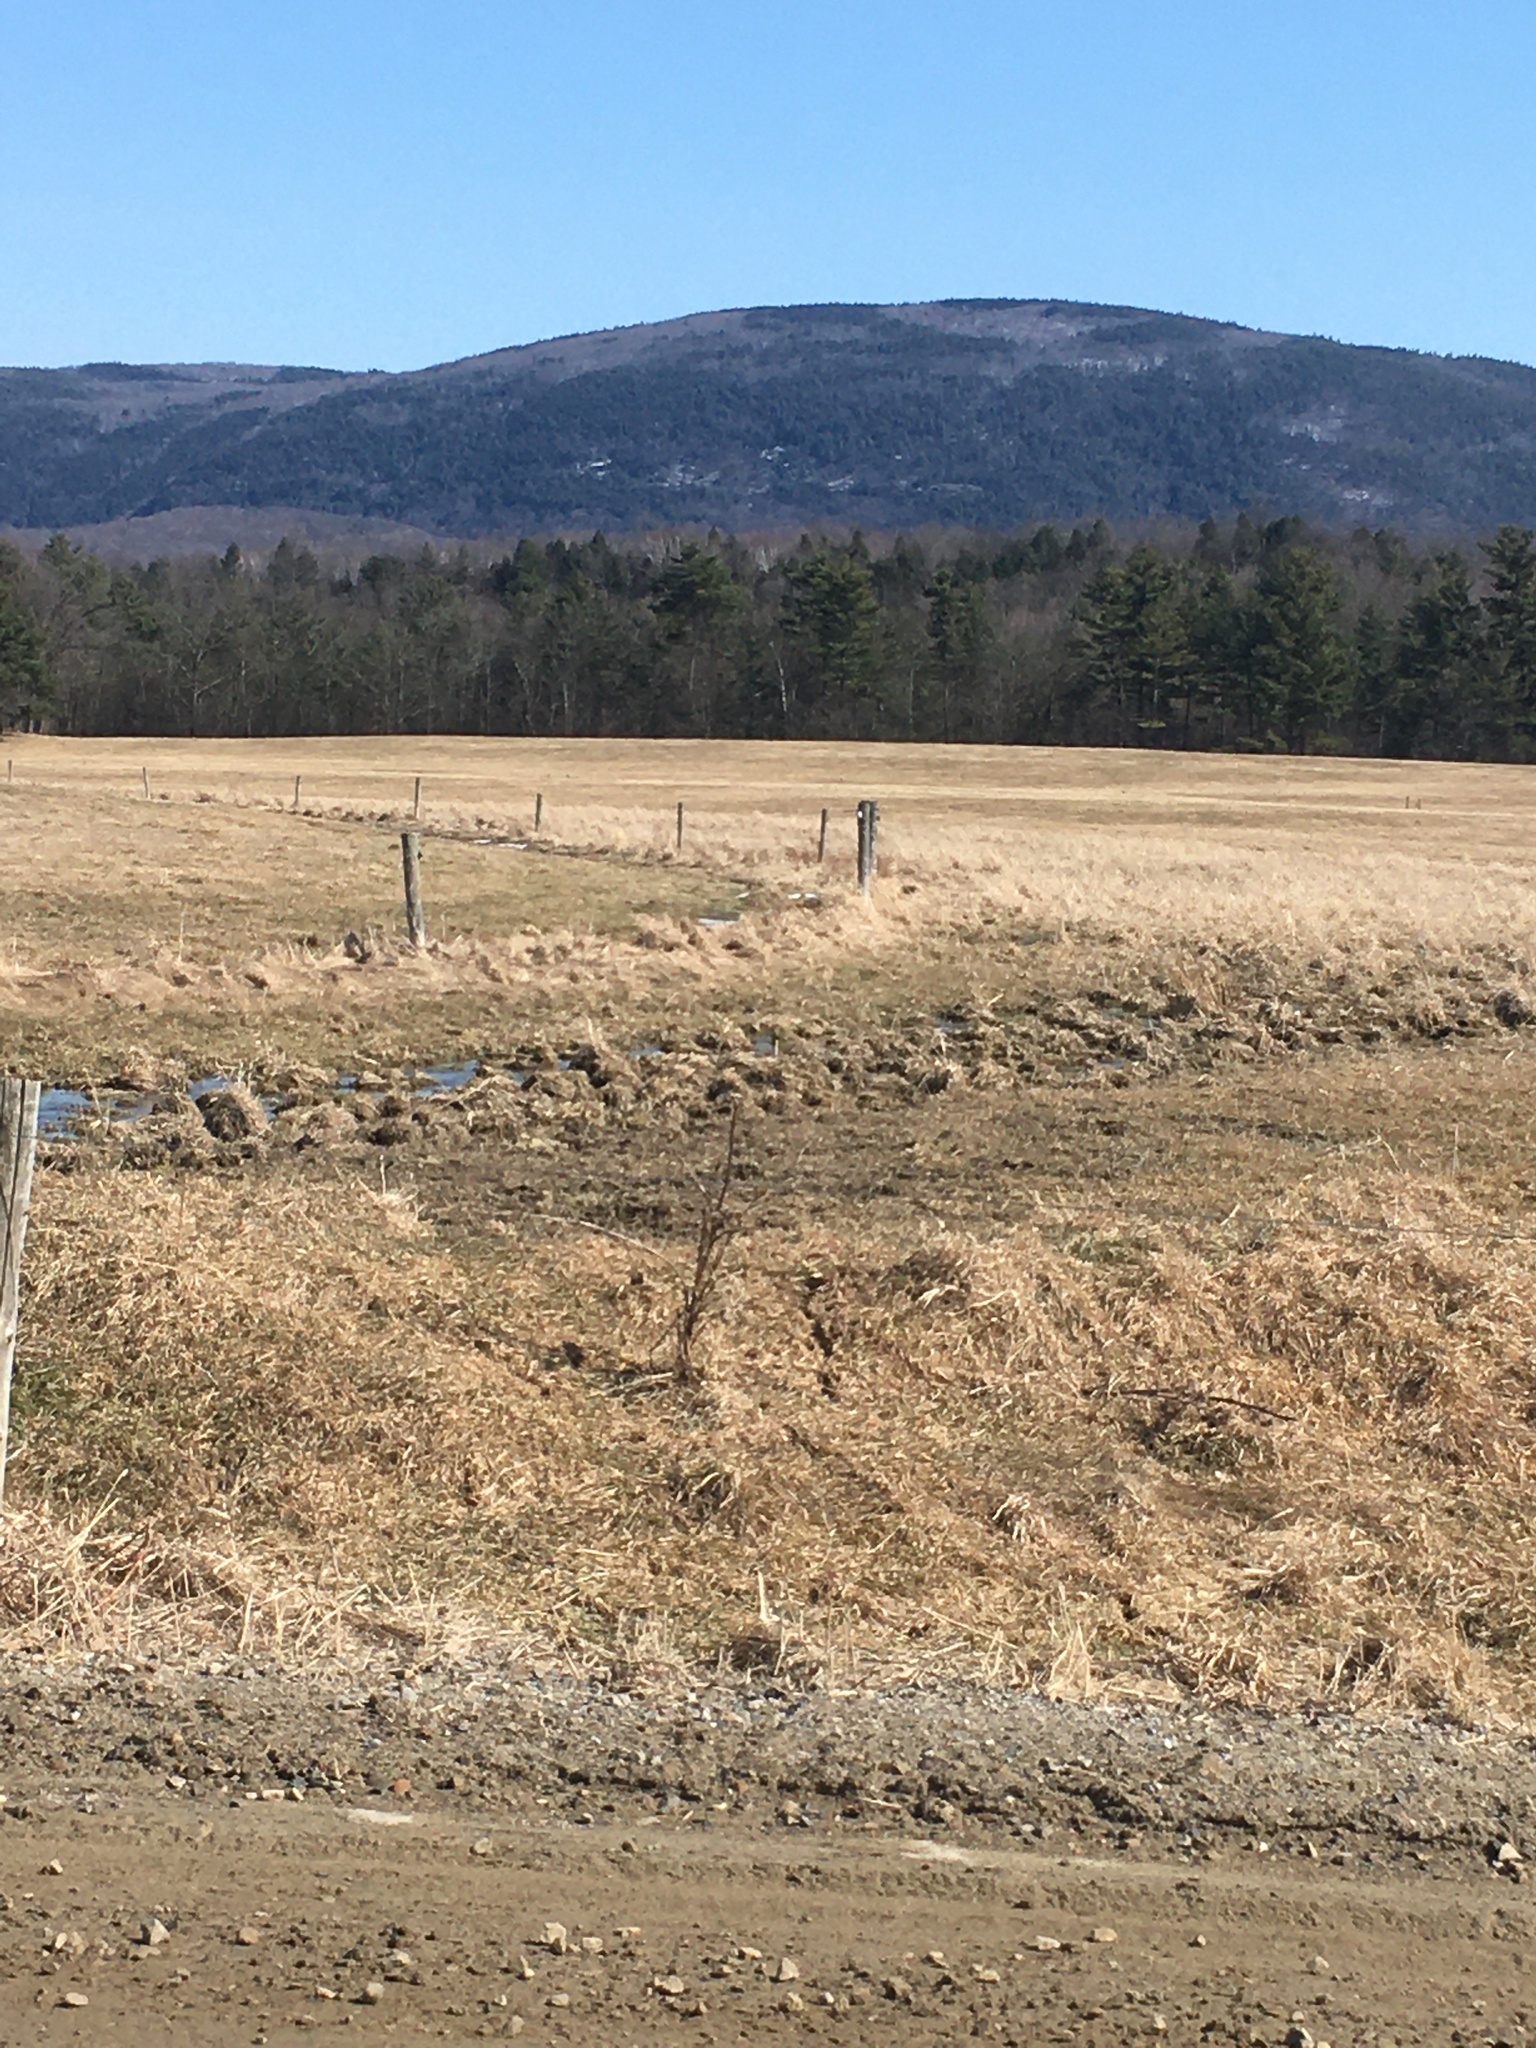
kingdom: Plantae
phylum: Tracheophyta
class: Magnoliopsida
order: Asterales
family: Asteraceae
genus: Arctium
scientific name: Arctium
